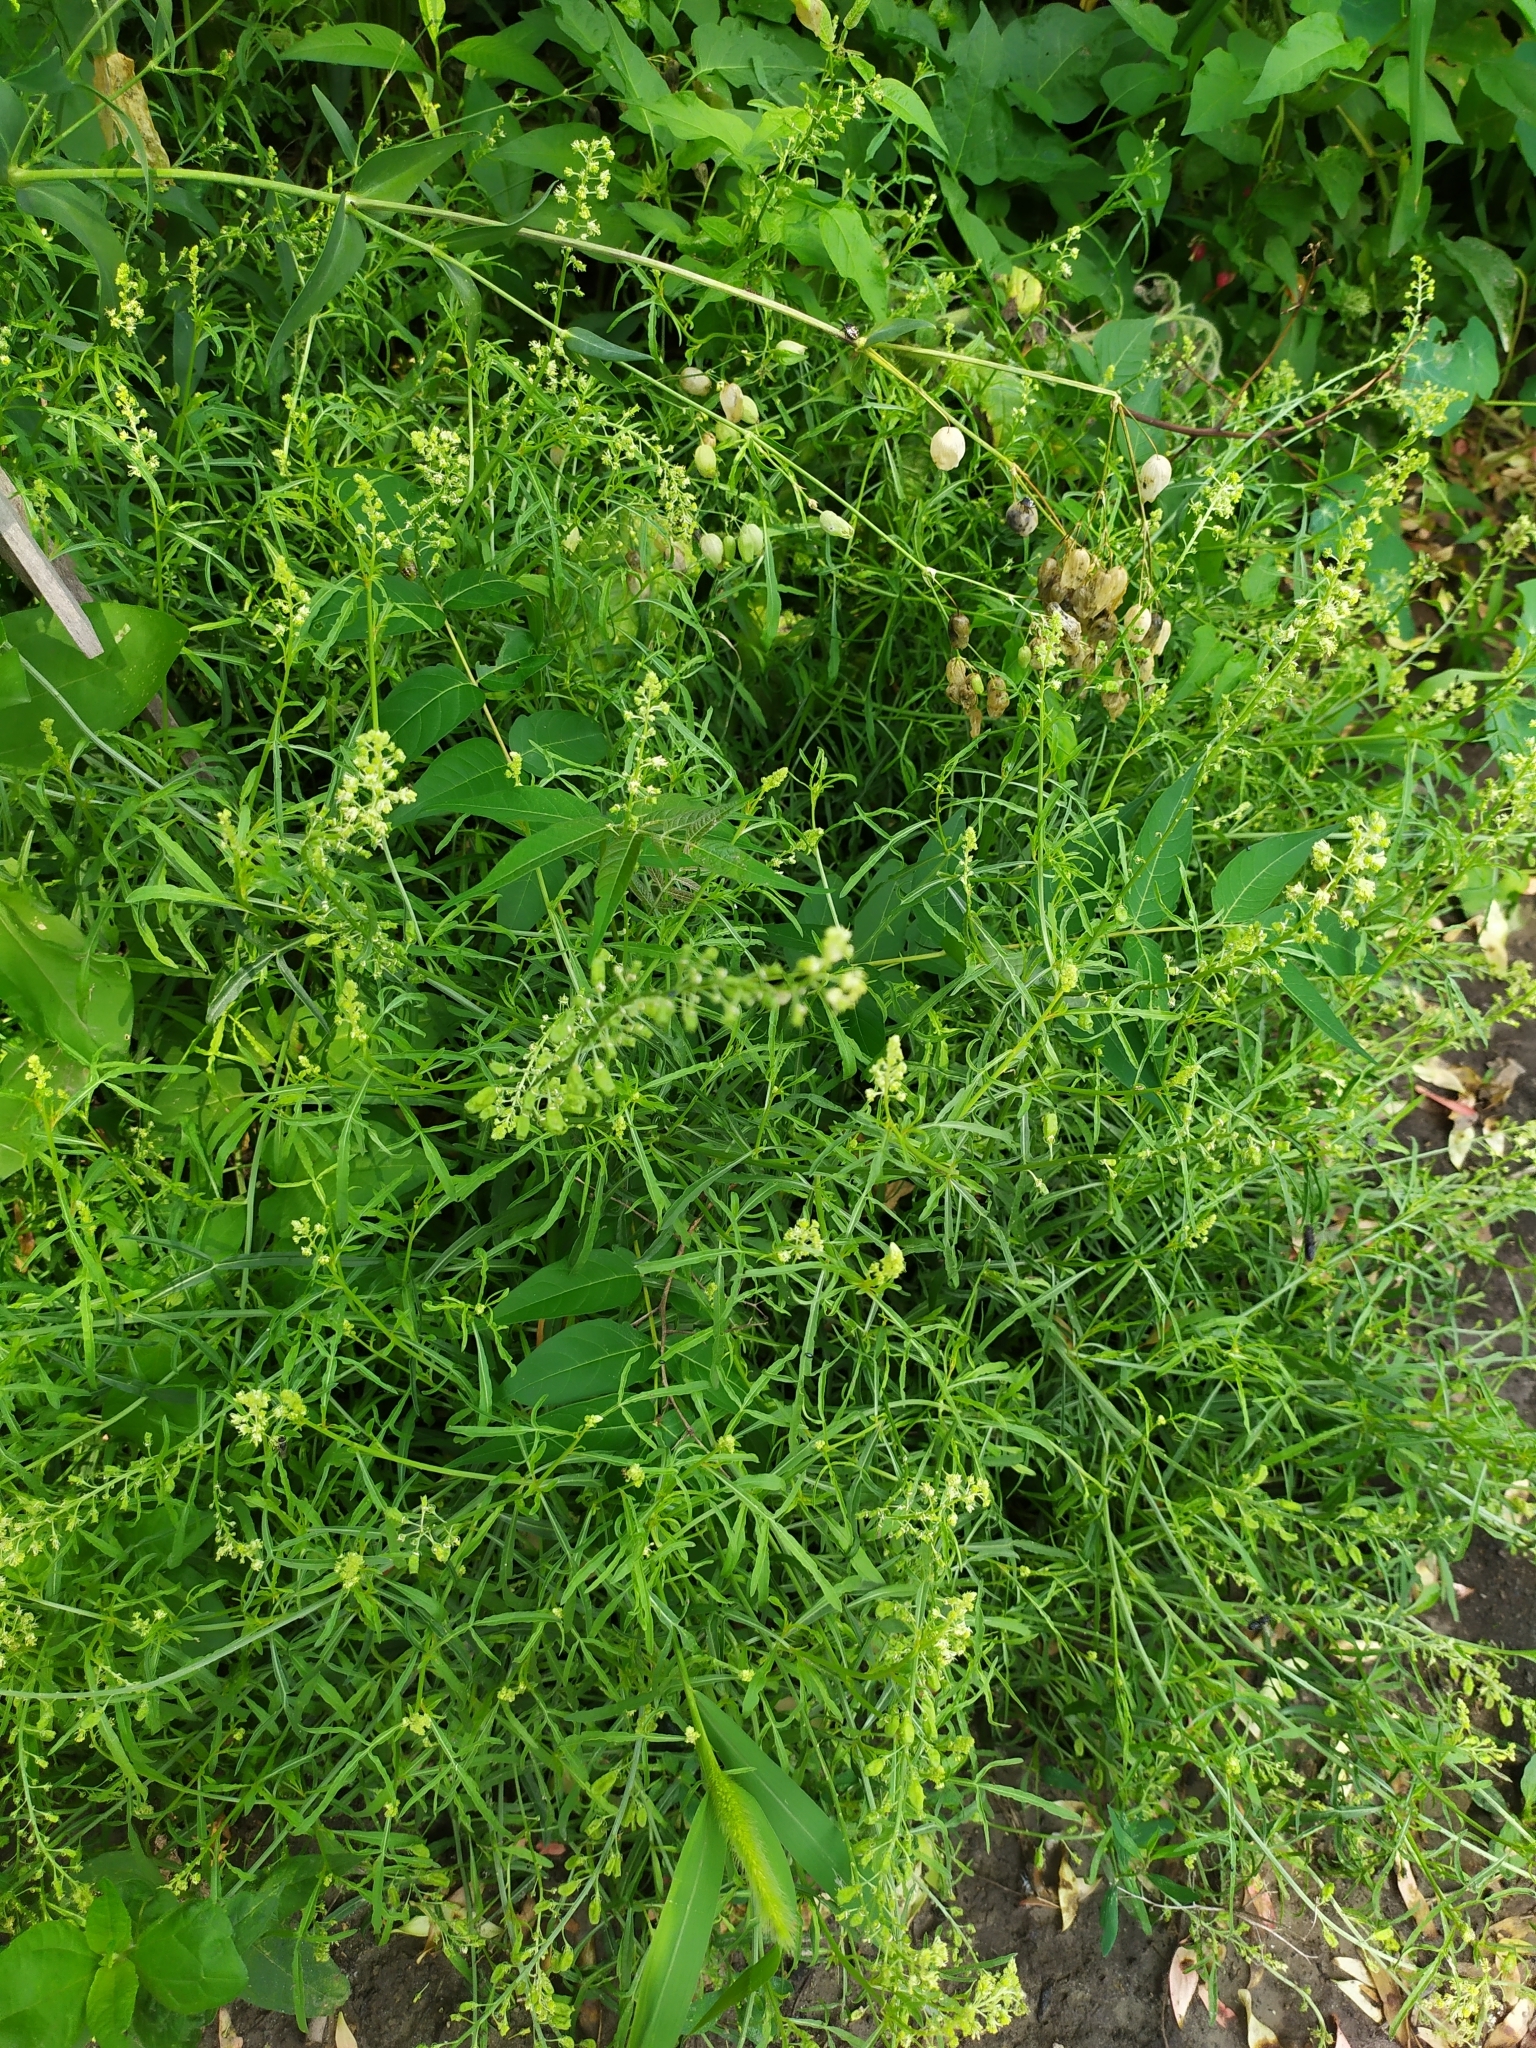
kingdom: Plantae
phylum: Tracheophyta
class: Magnoliopsida
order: Brassicales
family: Resedaceae
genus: Reseda
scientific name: Reseda lutea
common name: Wild mignonette
